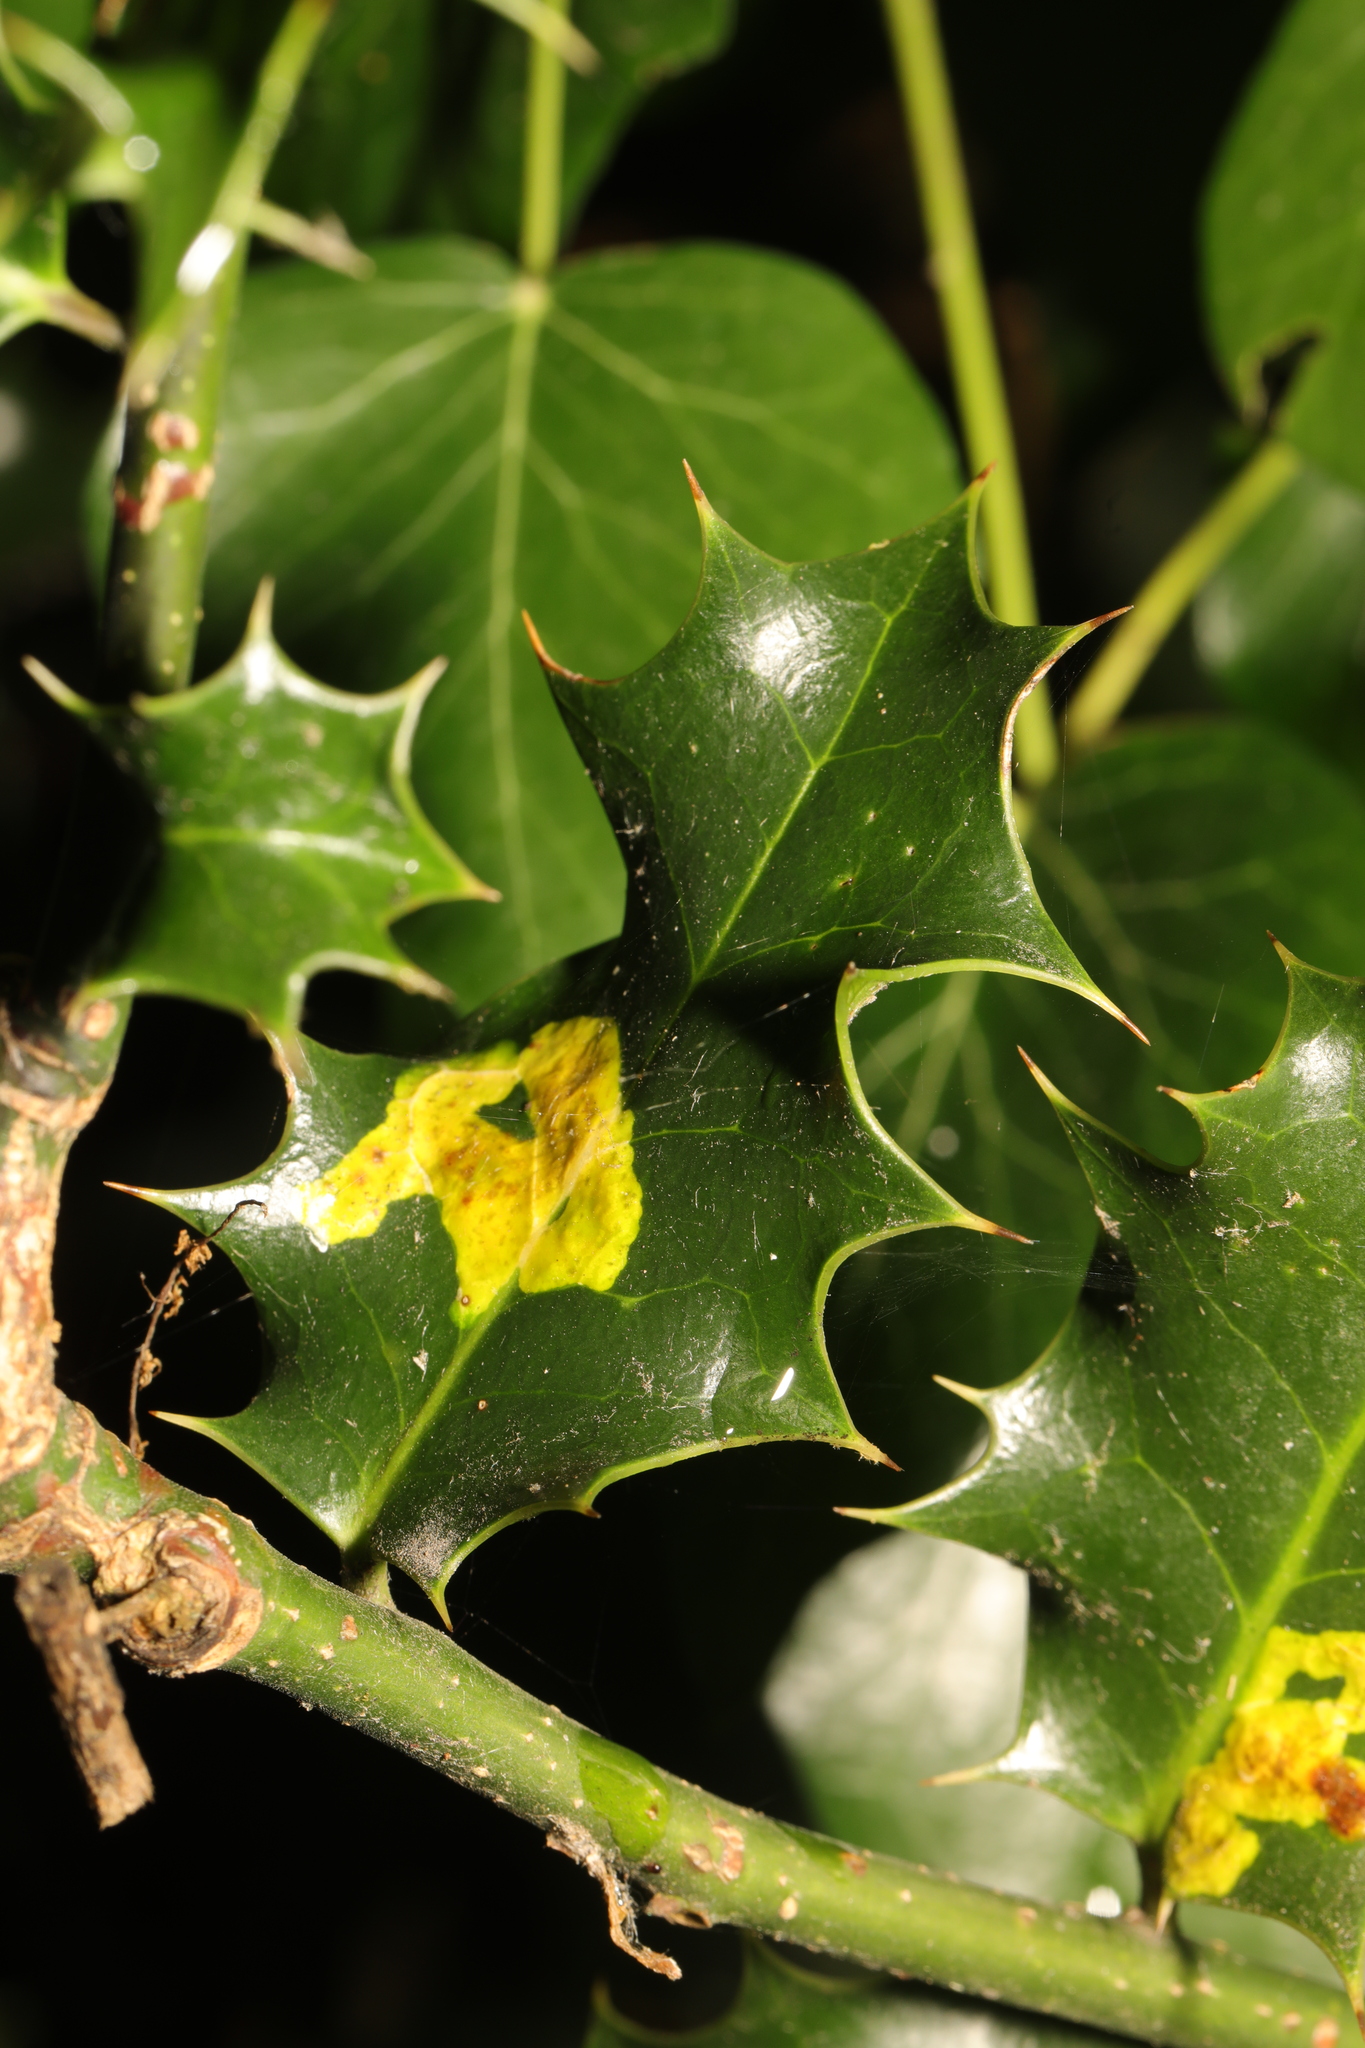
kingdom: Plantae
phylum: Tracheophyta
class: Magnoliopsida
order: Aquifoliales
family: Aquifoliaceae
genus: Ilex
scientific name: Ilex aquifolium
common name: English holly
